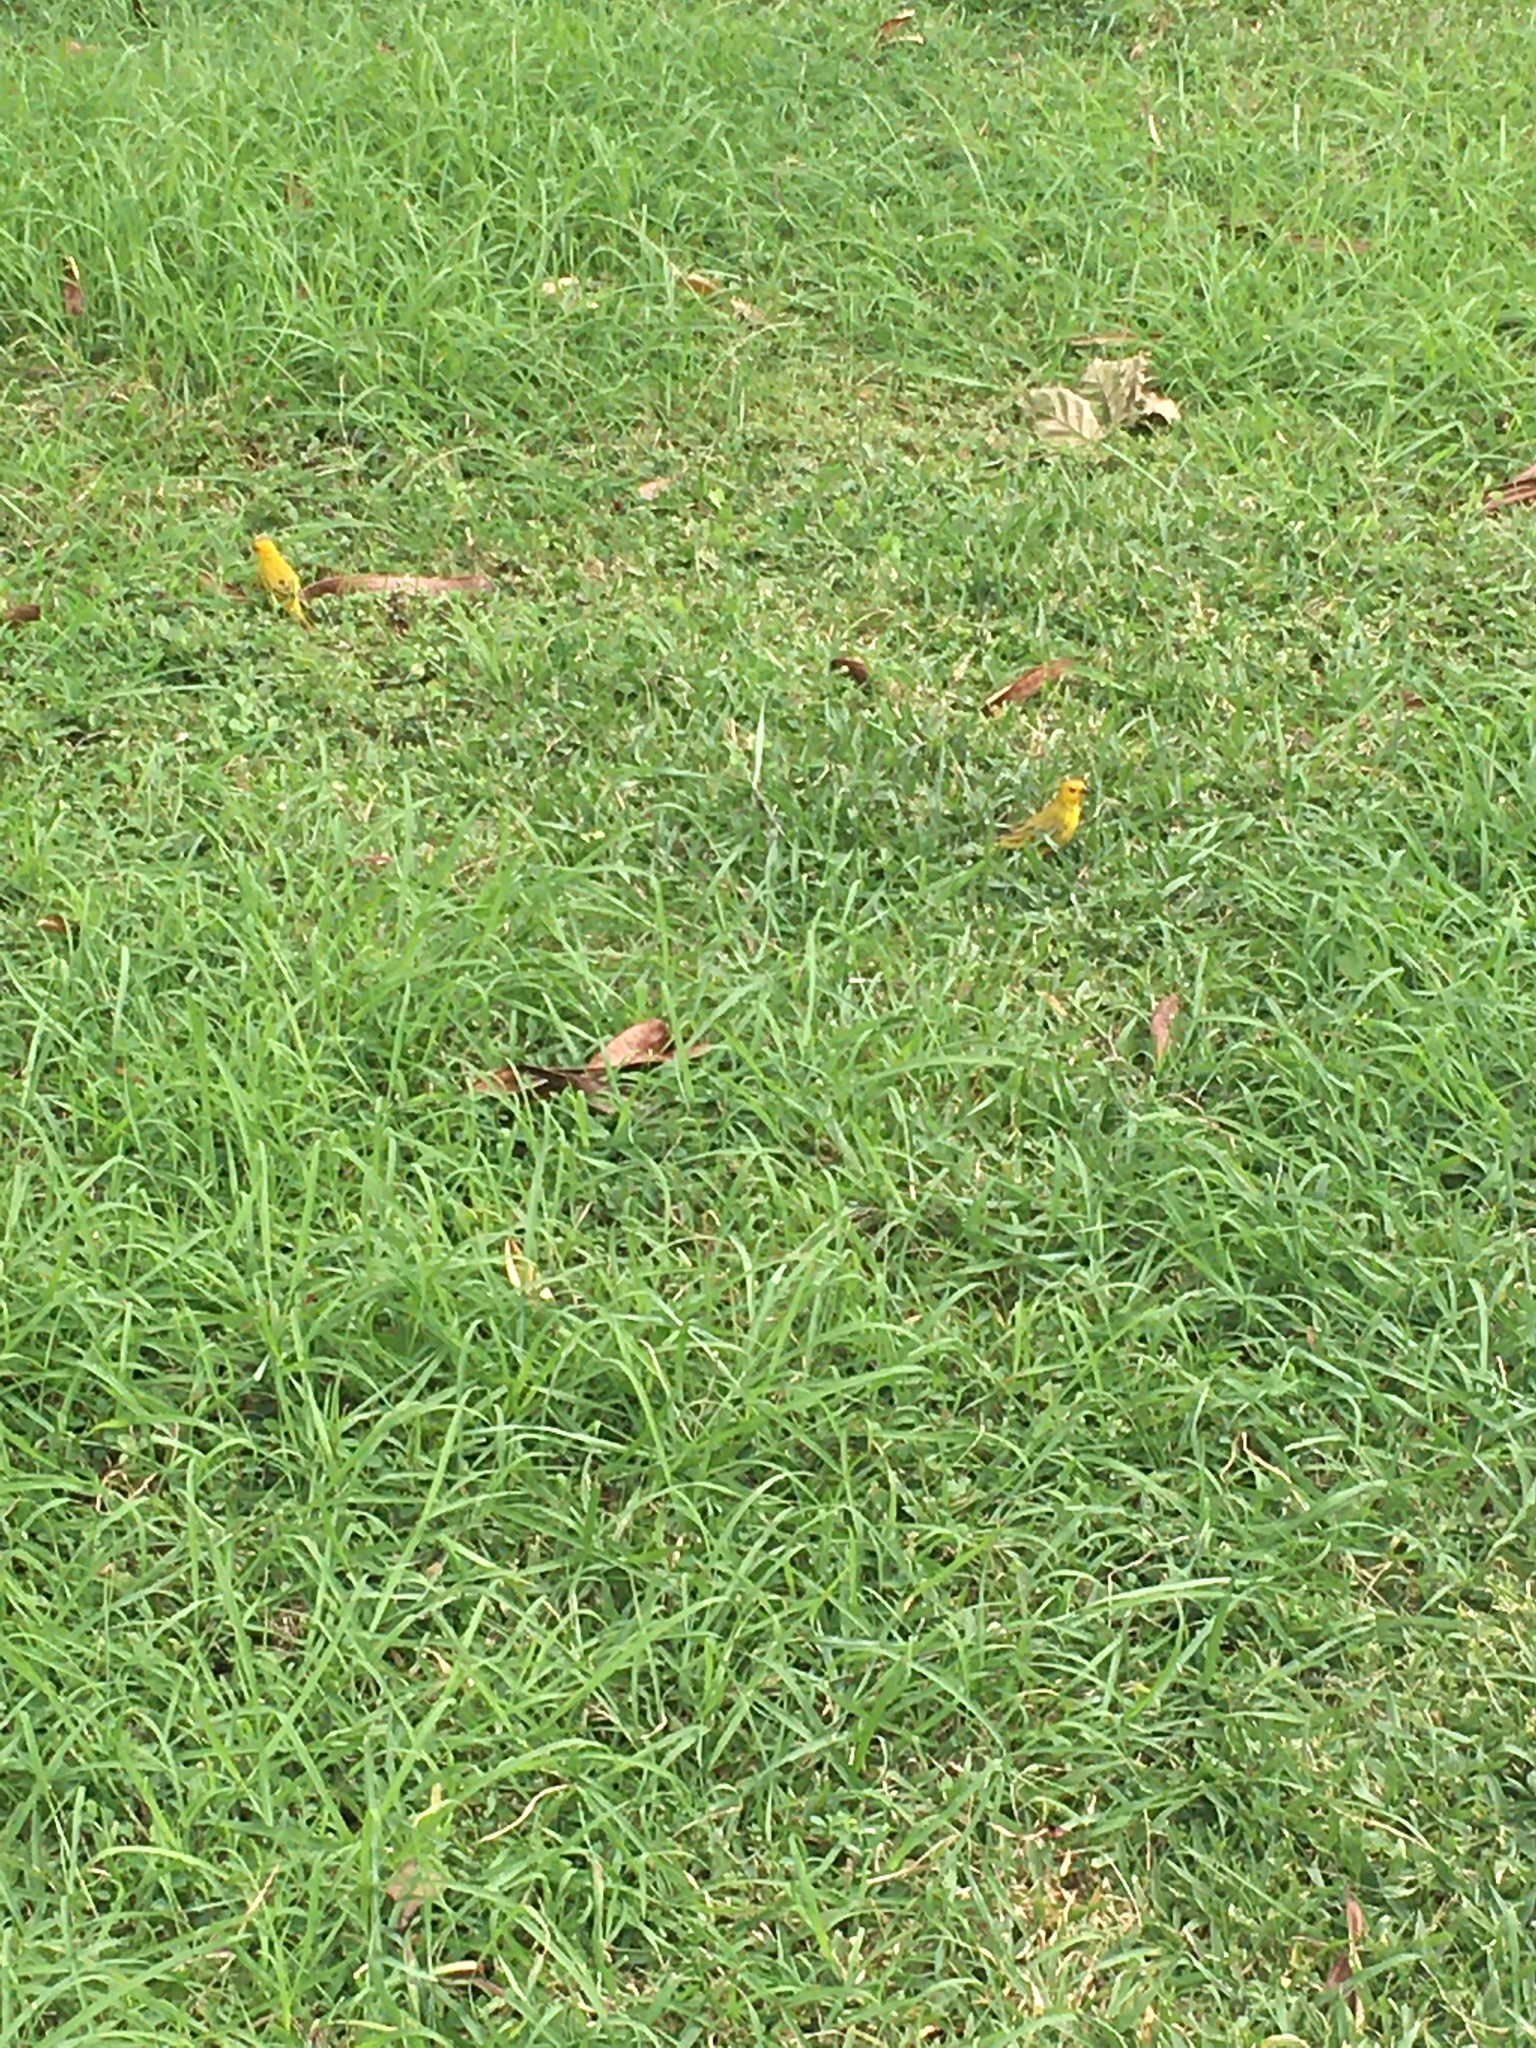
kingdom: Animalia
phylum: Chordata
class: Aves
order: Passeriformes
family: Thraupidae
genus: Sicalis
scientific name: Sicalis flaveola
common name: Saffron finch
